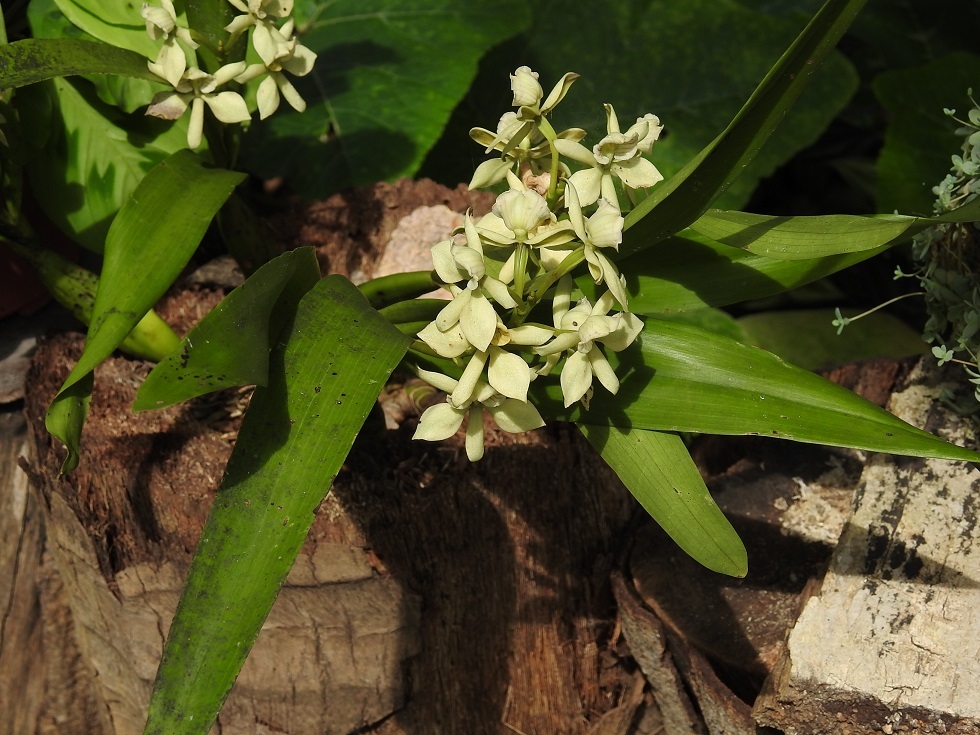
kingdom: Plantae
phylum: Tracheophyta
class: Liliopsida
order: Asparagales
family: Orchidaceae
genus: Prosthechea
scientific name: Prosthechea radiata
